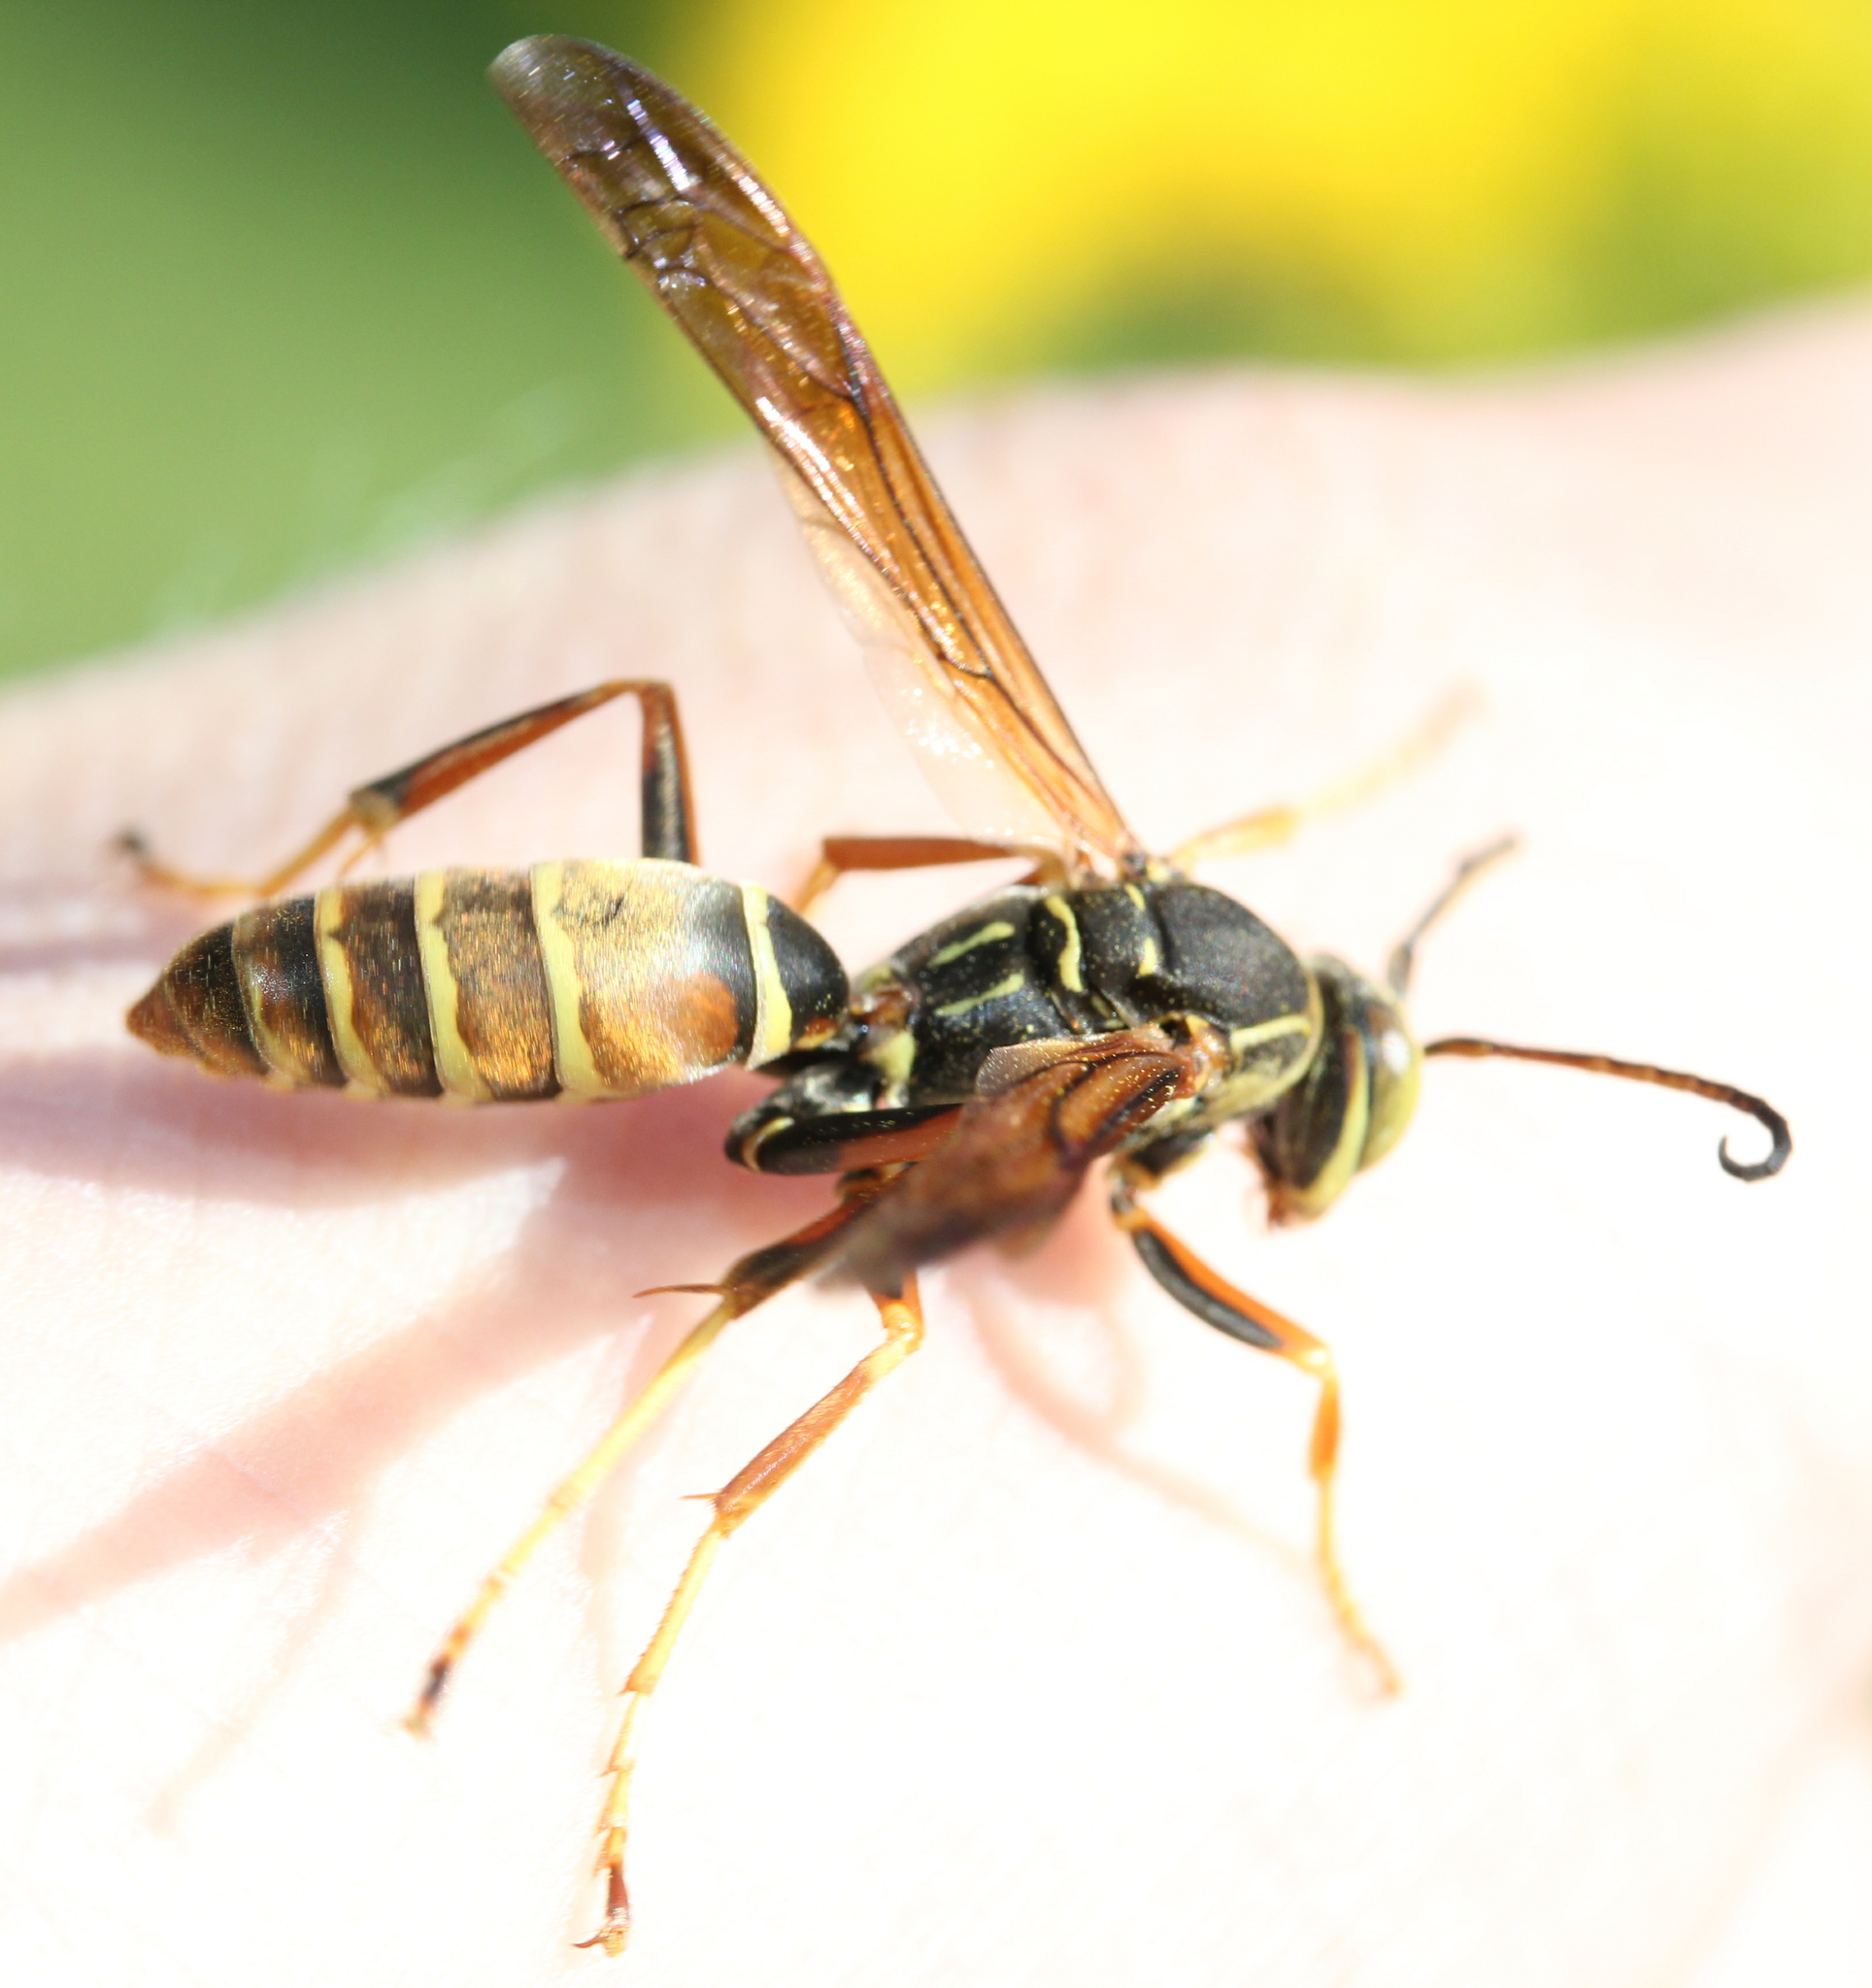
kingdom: Animalia
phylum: Arthropoda
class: Insecta
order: Hymenoptera
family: Eumenidae
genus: Polistes
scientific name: Polistes fuscatus
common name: Dark paper wasp
